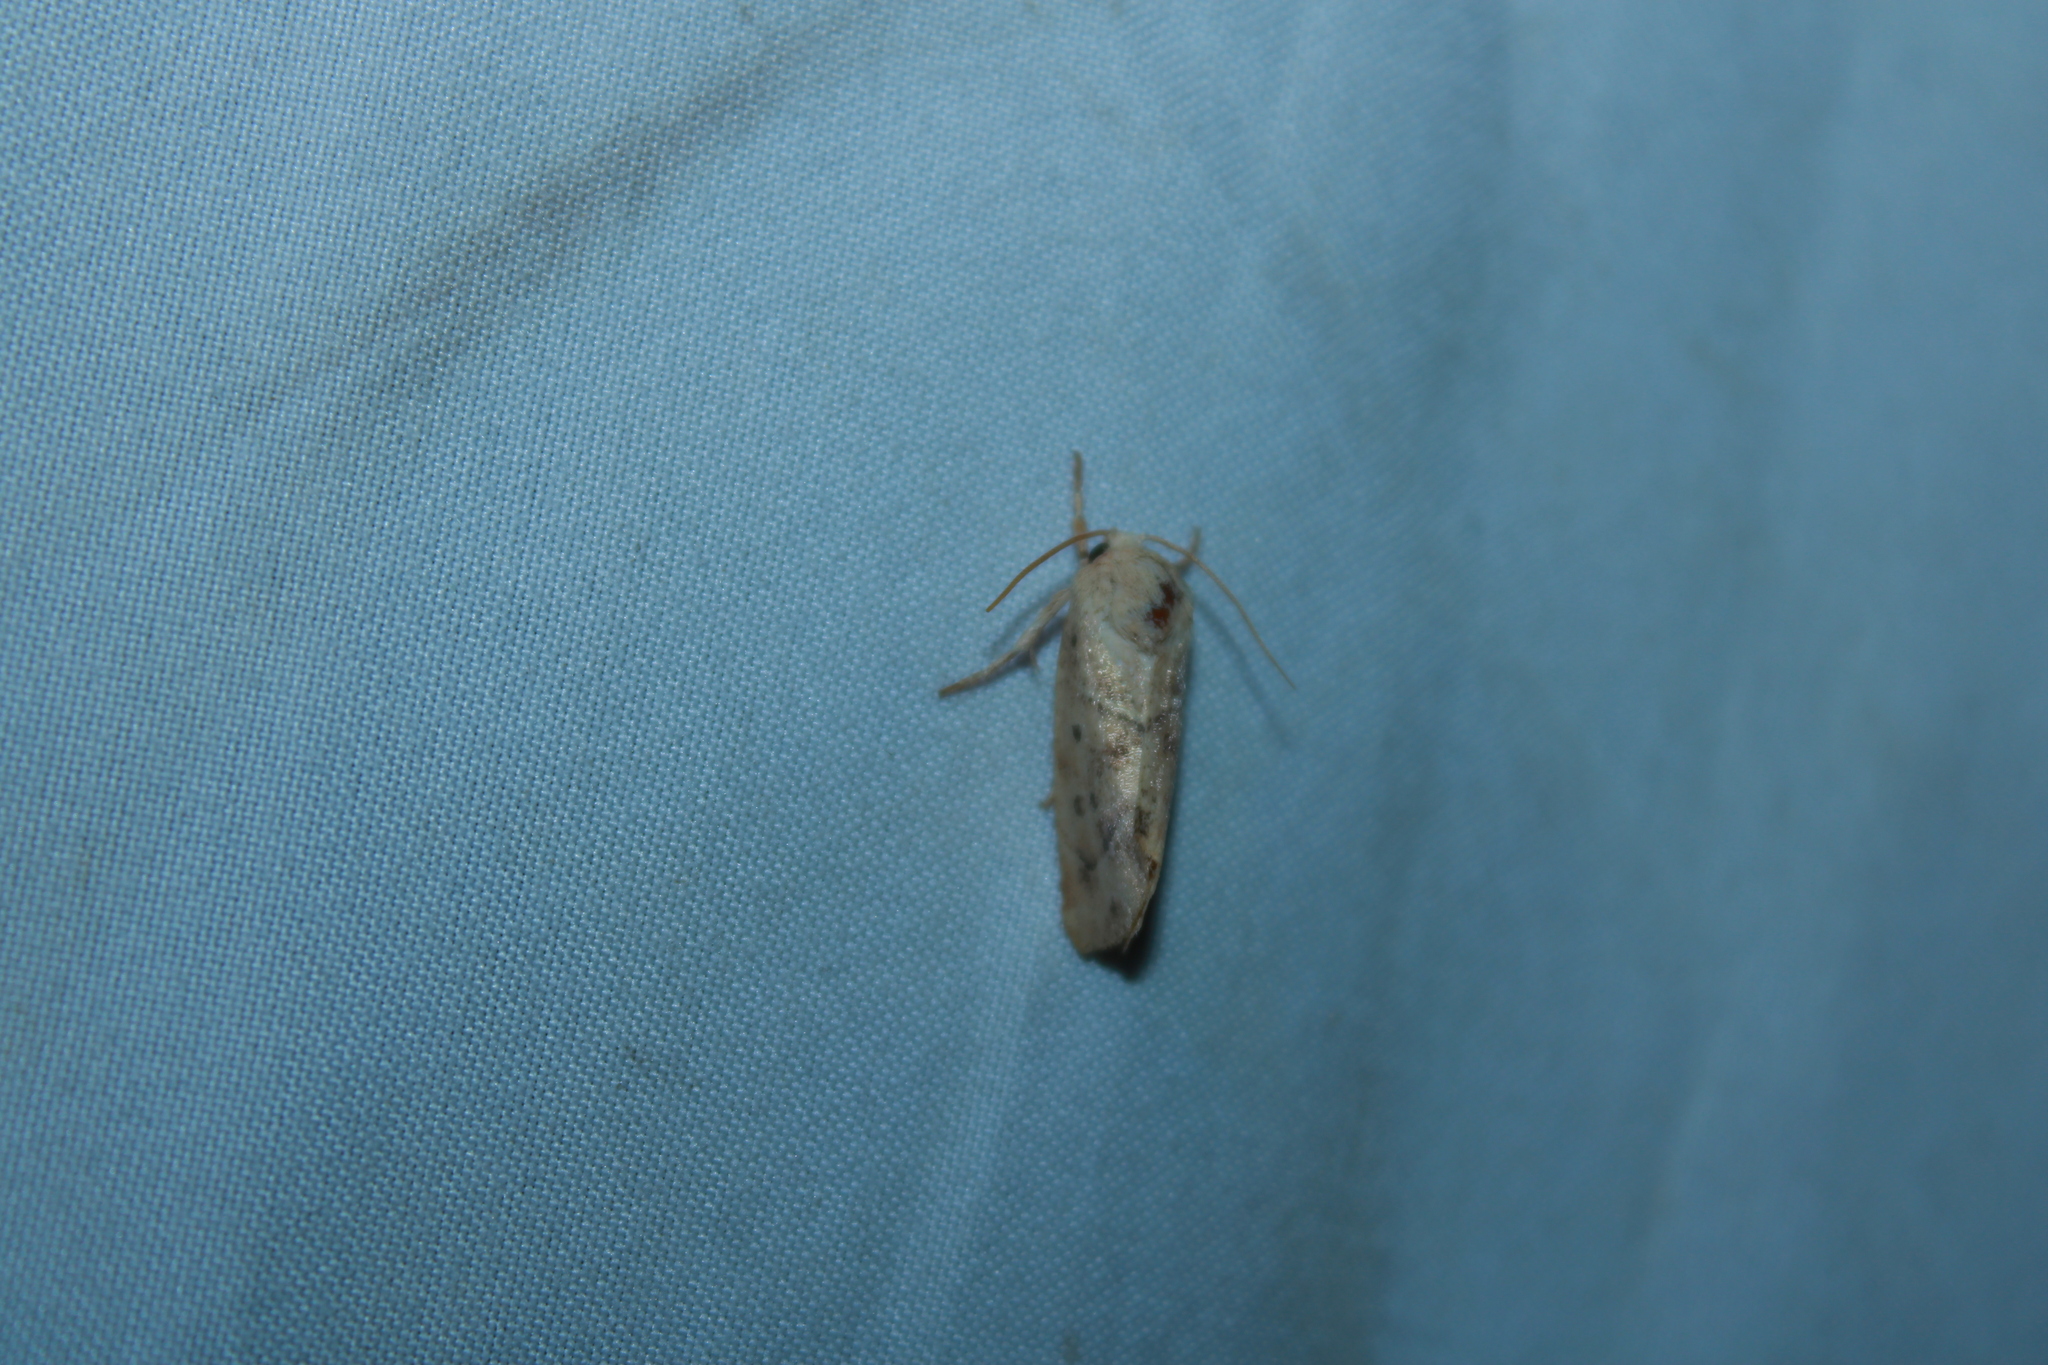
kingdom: Animalia
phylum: Arthropoda
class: Insecta
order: Lepidoptera
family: Noctuidae
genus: Cosmia
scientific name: Cosmia calami
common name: American dun-bar moth
